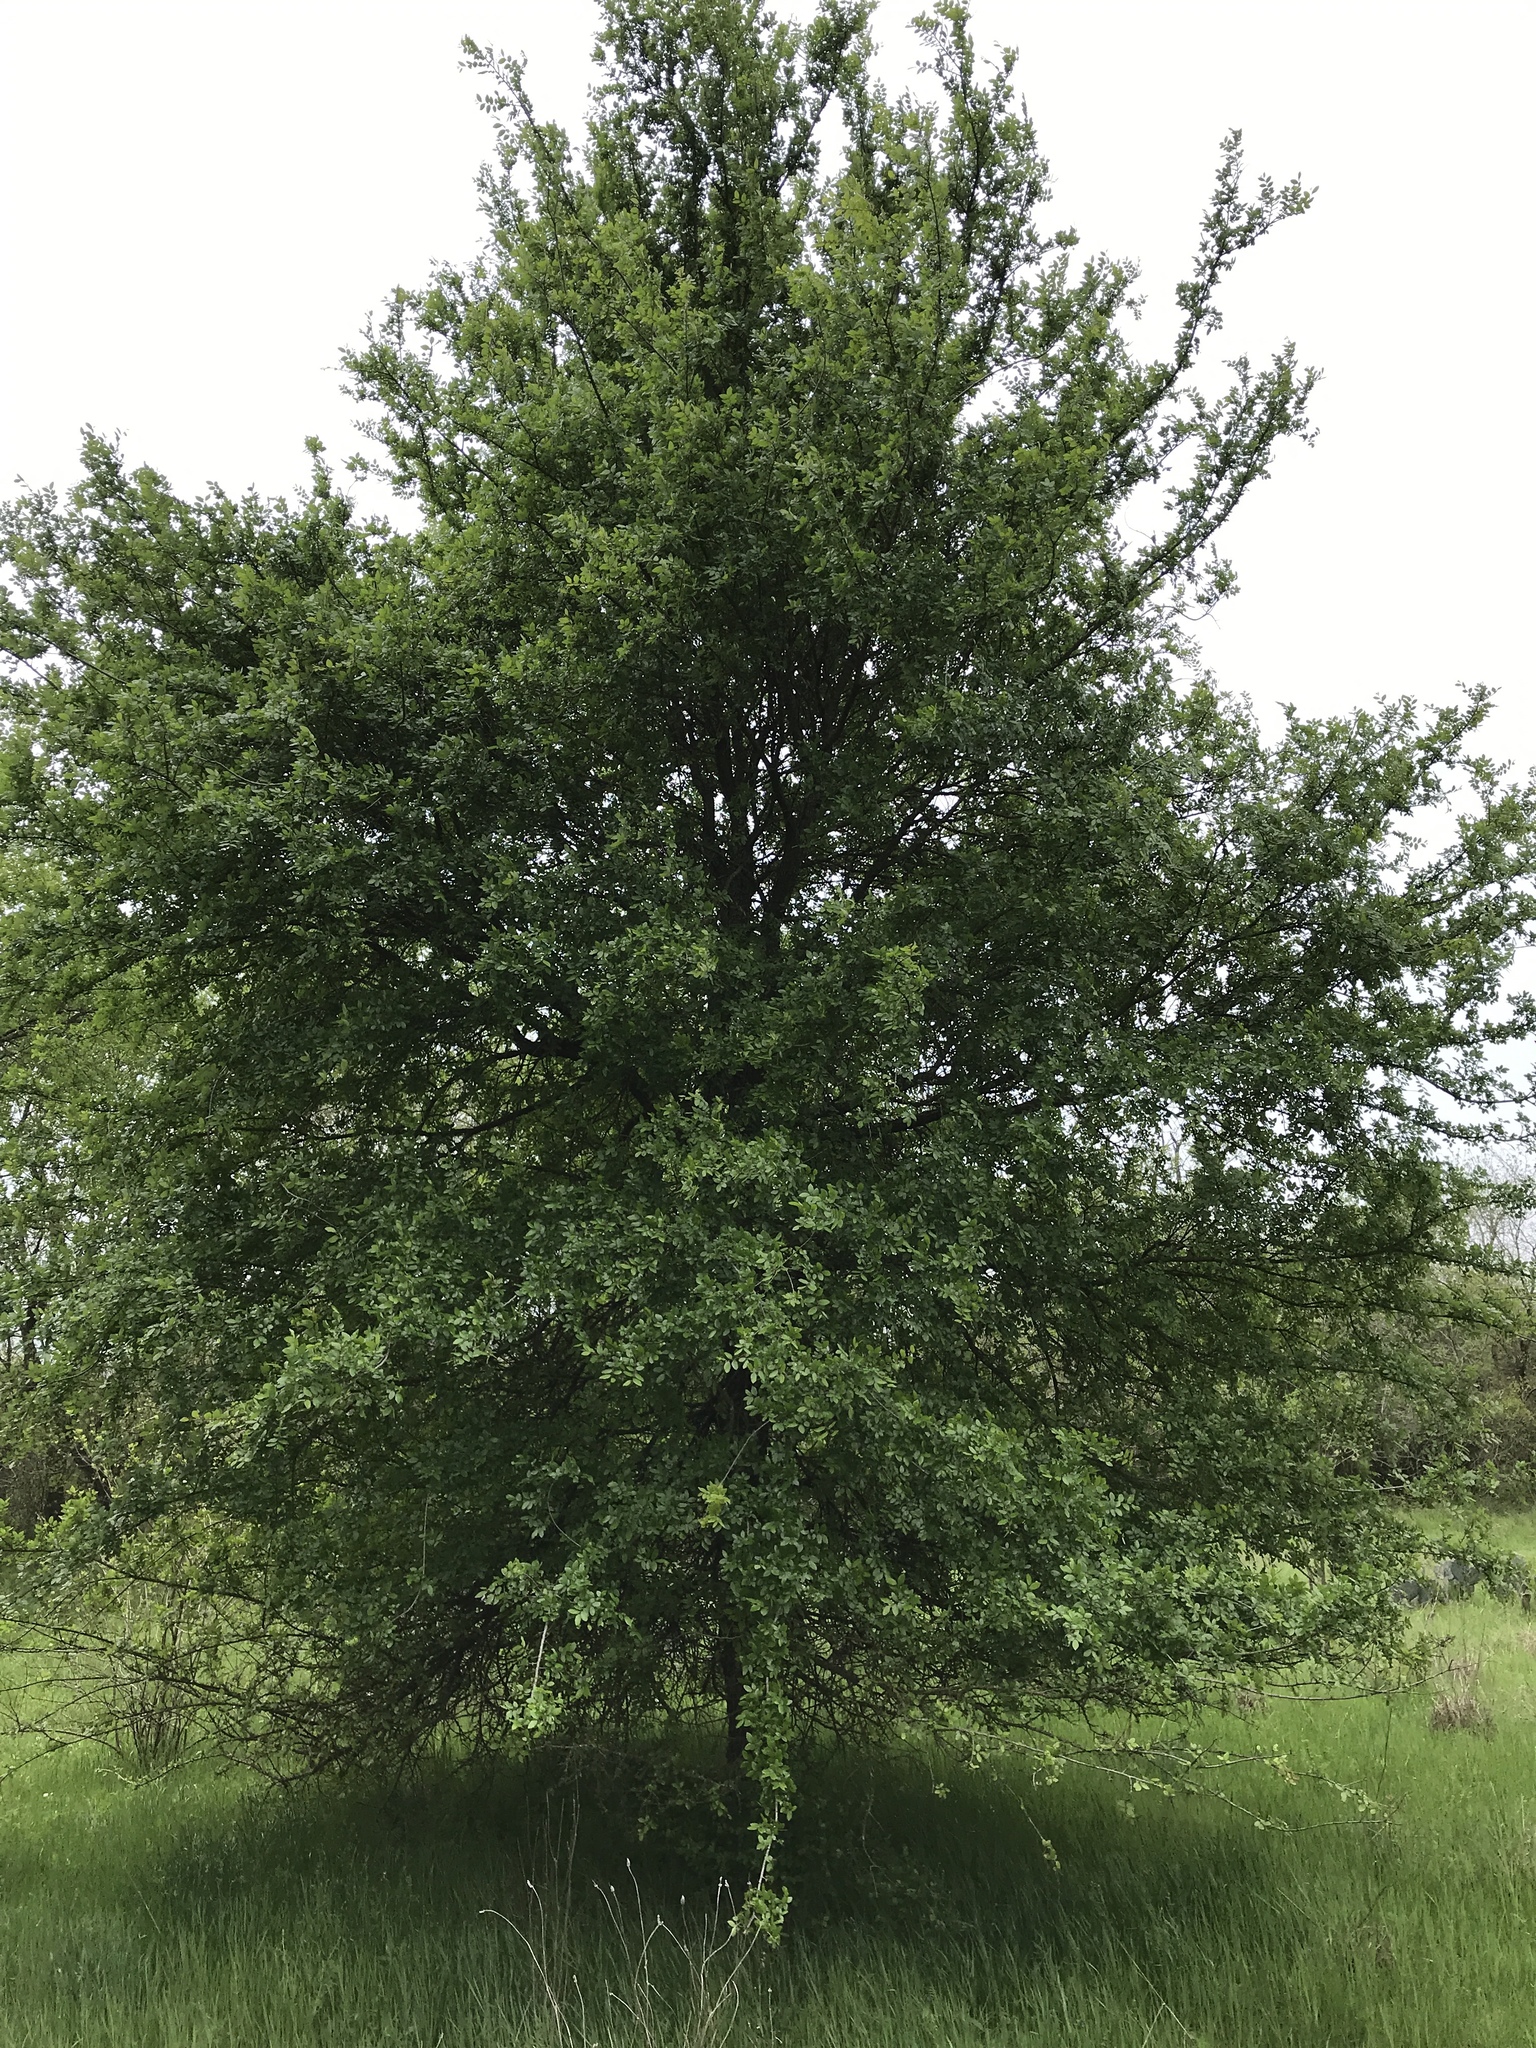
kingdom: Plantae
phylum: Tracheophyta
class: Magnoliopsida
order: Rosales
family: Ulmaceae
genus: Ulmus
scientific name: Ulmus crassifolia
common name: Basket elm
